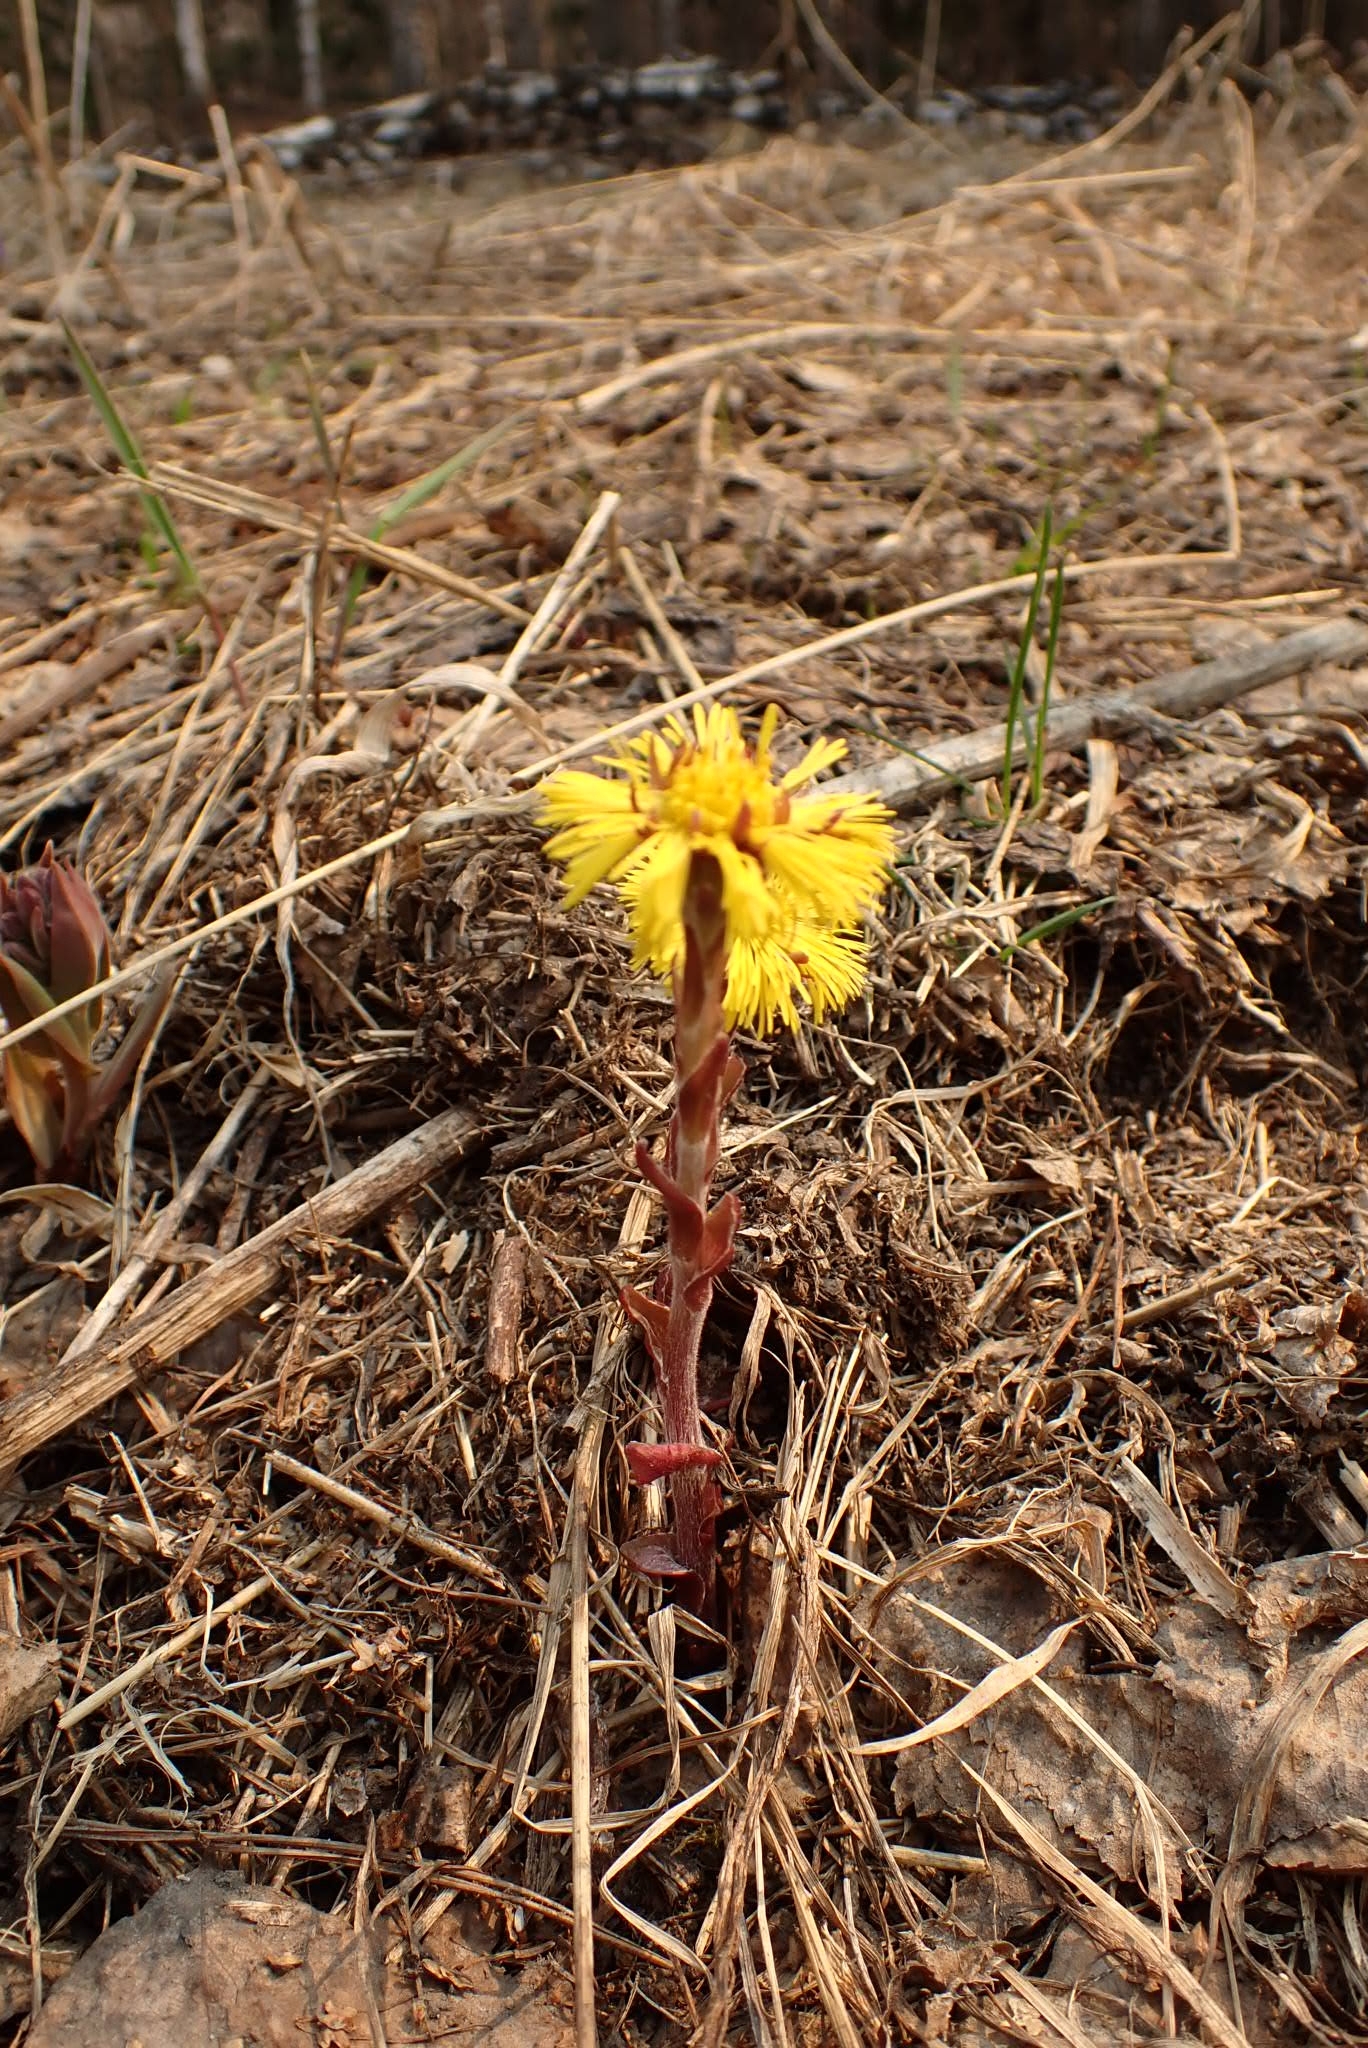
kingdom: Plantae
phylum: Tracheophyta
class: Magnoliopsida
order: Asterales
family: Asteraceae
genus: Tussilago
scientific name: Tussilago farfara
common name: Coltsfoot
